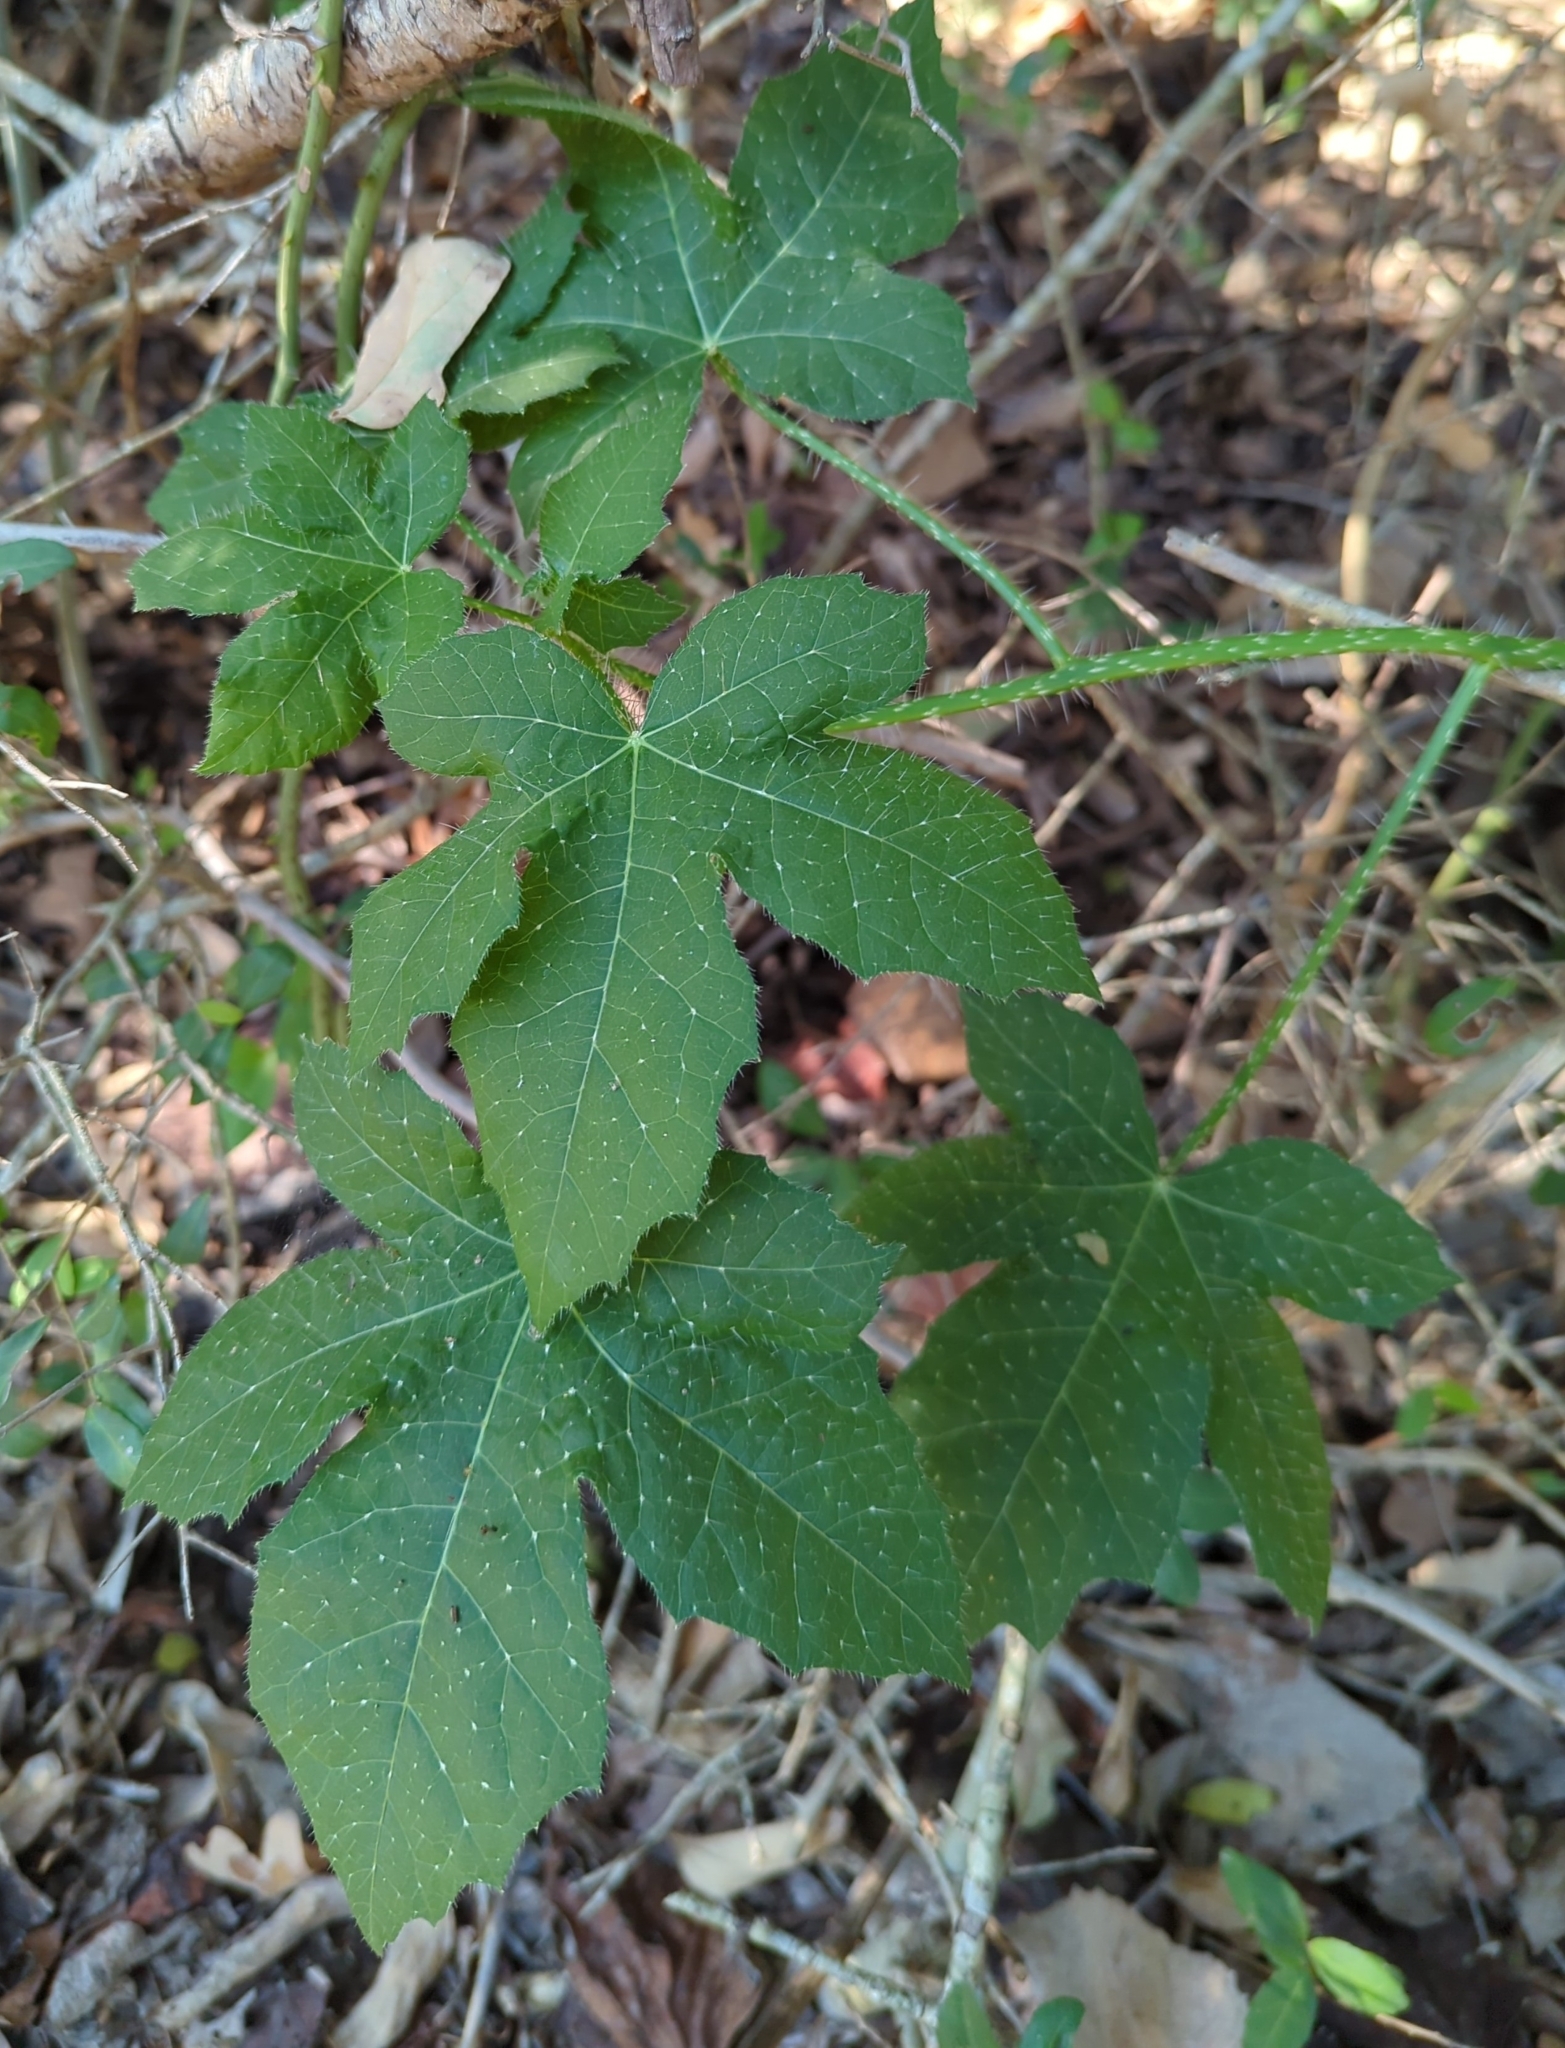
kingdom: Plantae
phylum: Tracheophyta
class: Magnoliopsida
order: Malpighiales
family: Euphorbiaceae
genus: Cnidoscolus
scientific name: Cnidoscolus texanus
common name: Texas bull-nettle
